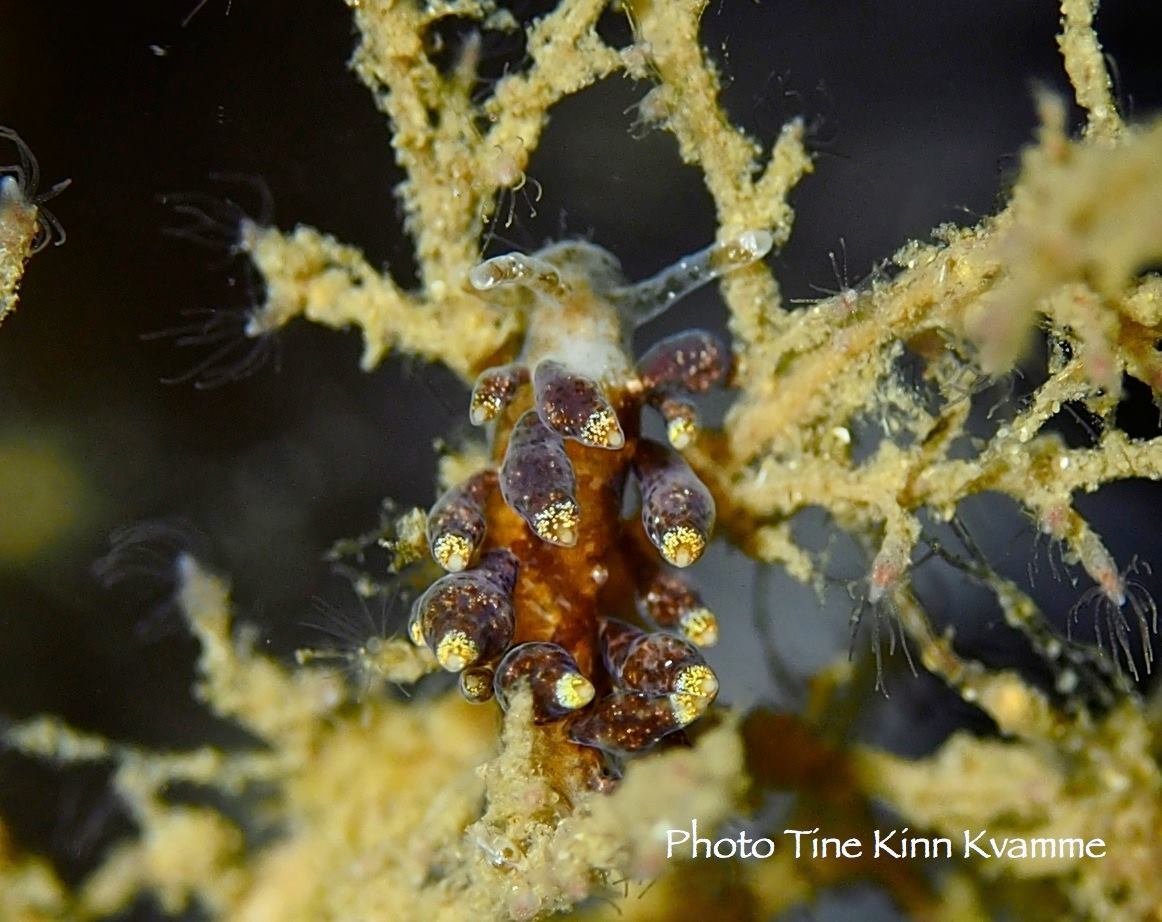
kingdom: Animalia
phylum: Mollusca
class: Gastropoda
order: Nudibranchia
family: Eubranchidae
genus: Eubranchus
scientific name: Eubranchus exiguus
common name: Balloon aeolis
